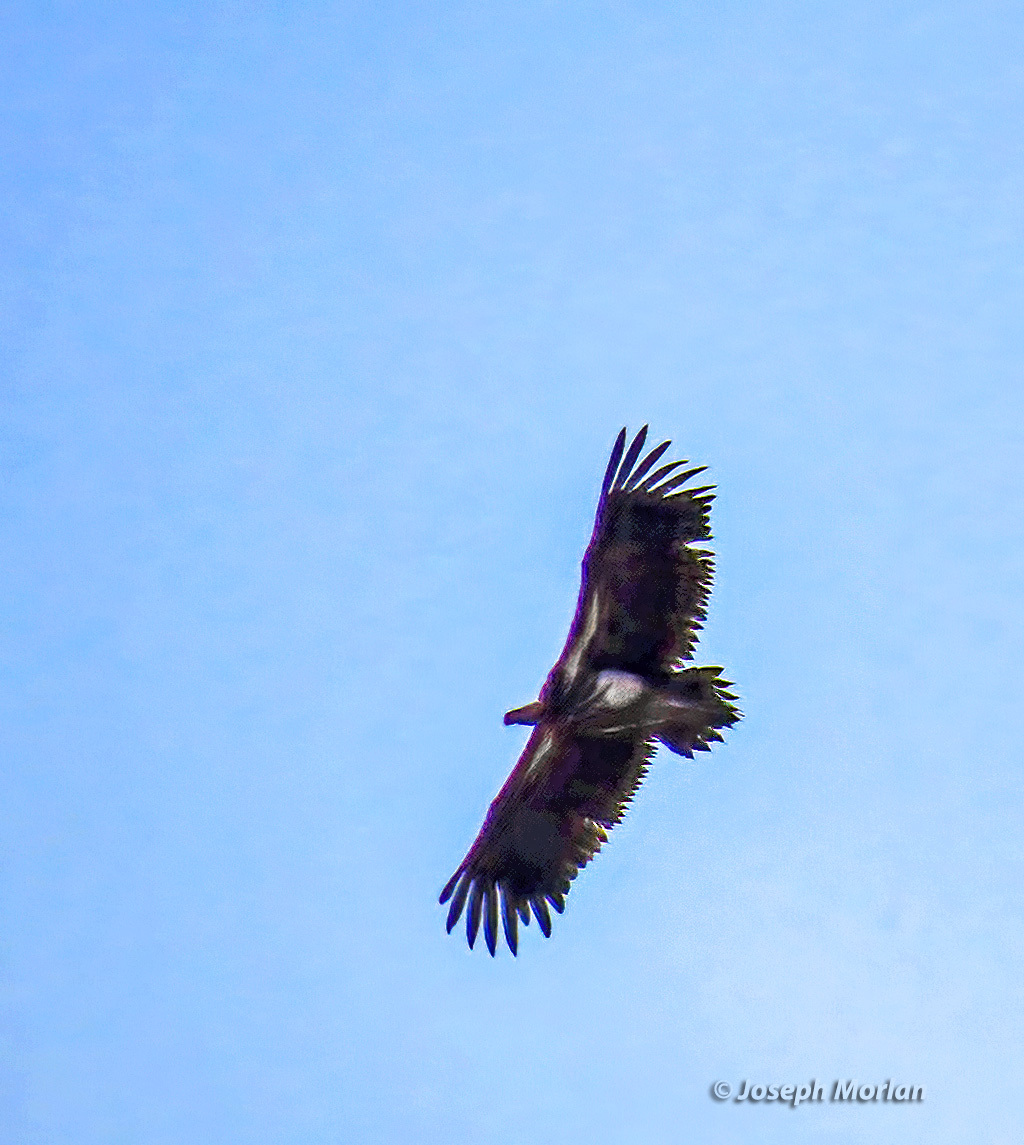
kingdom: Animalia
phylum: Chordata
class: Aves
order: Accipitriformes
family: Accipitridae
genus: Torgos
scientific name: Torgos tracheliotos
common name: Lappet-faced vulture
